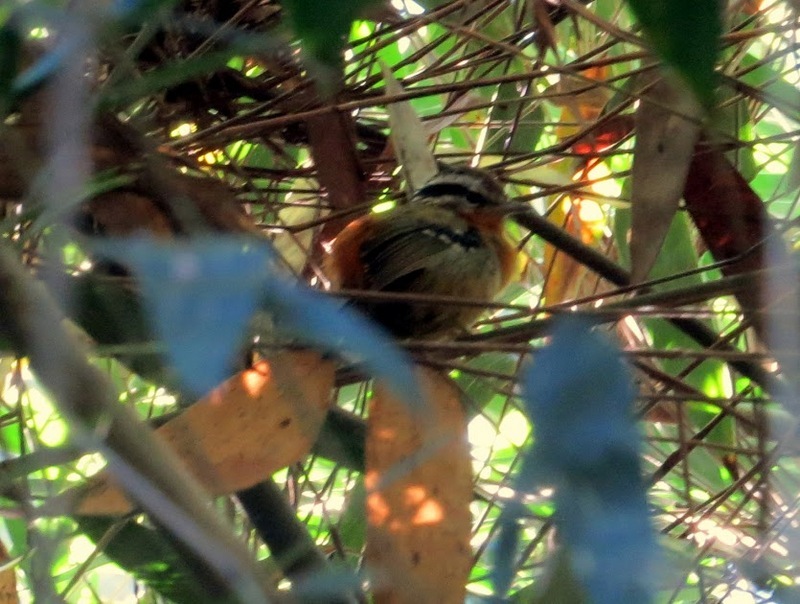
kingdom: Animalia
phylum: Chordata
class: Aves
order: Passeriformes
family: Thamnophilidae
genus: Drymophila
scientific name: Drymophila rubricollis
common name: Bertoni's antbird
